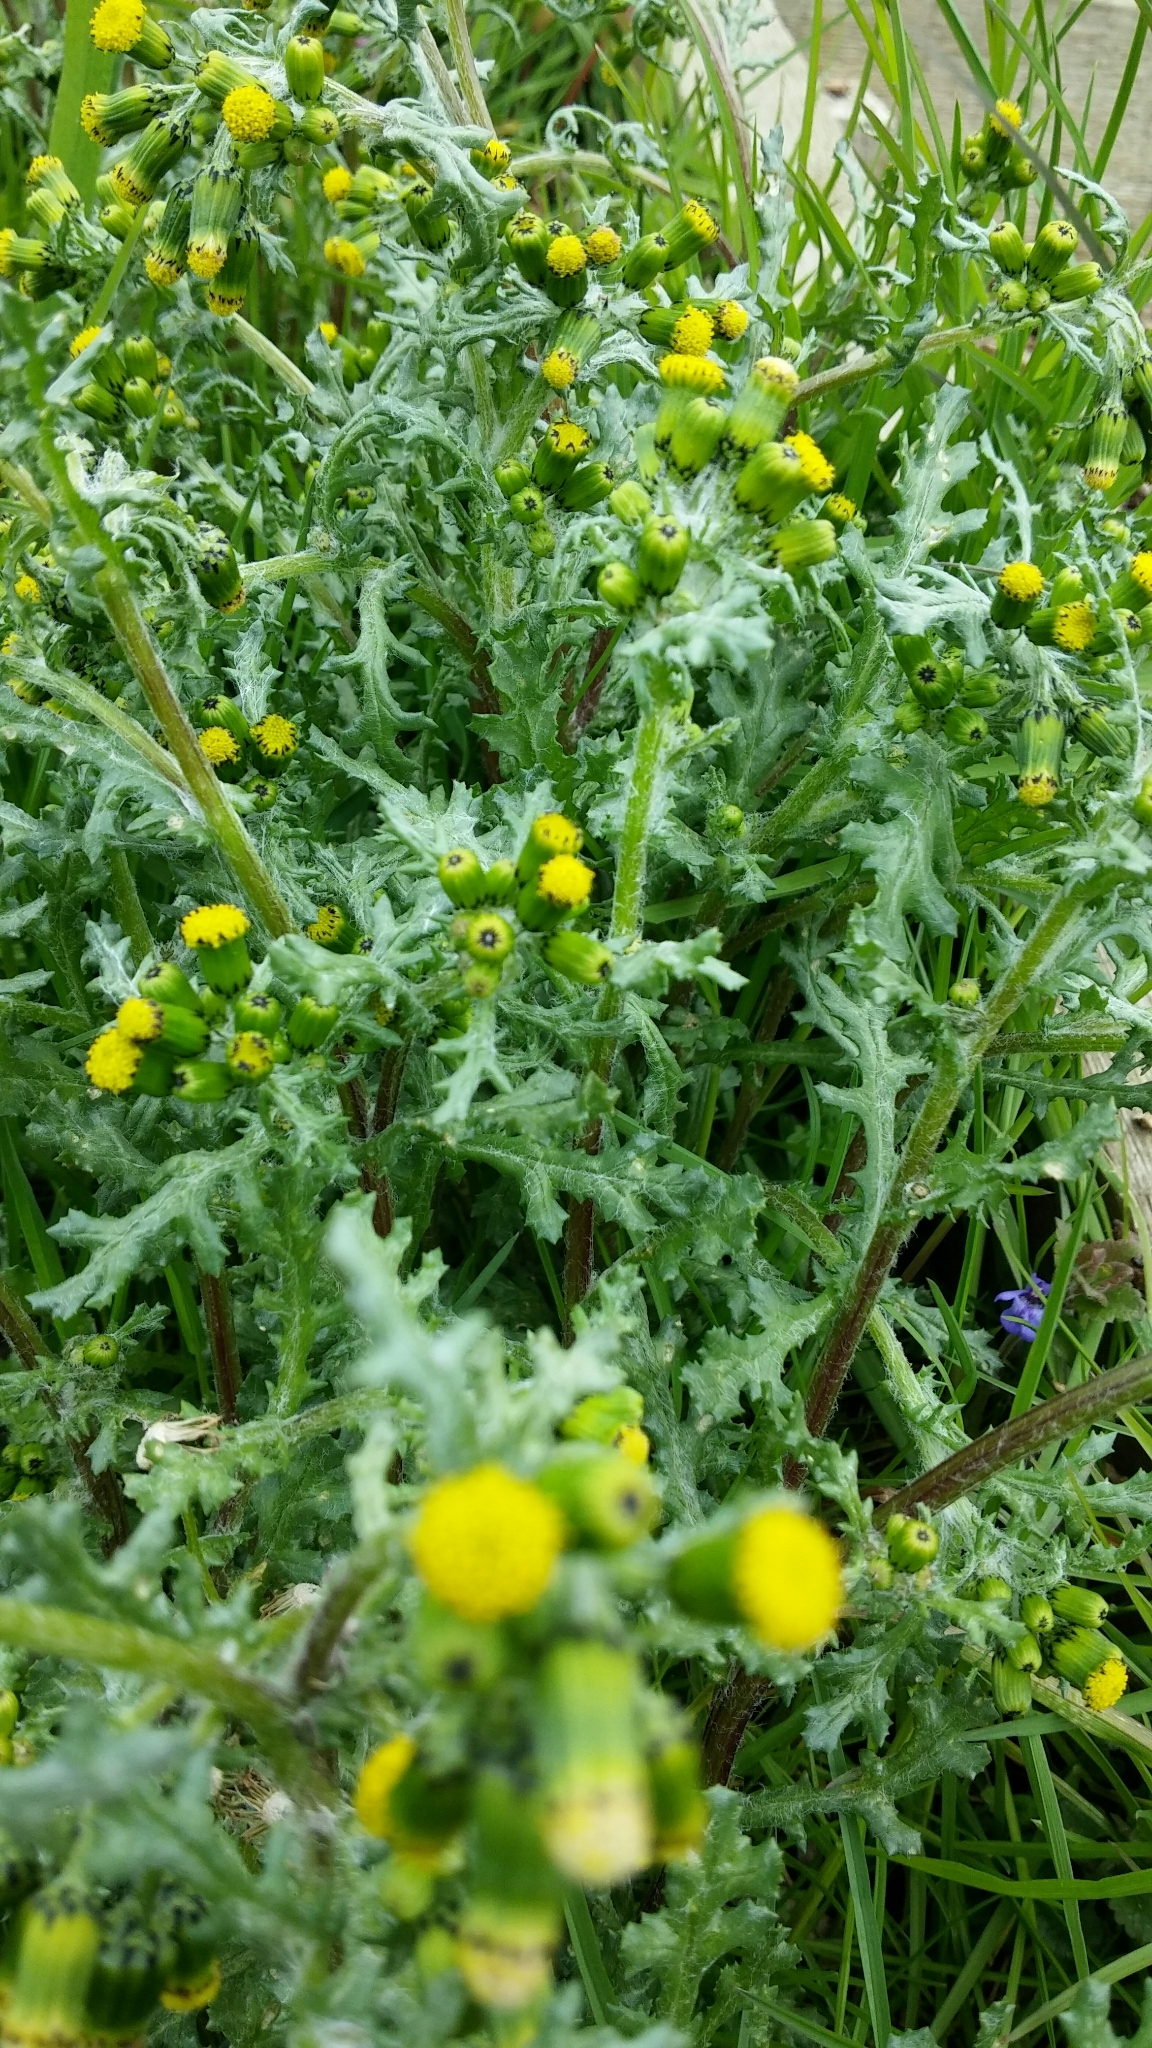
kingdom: Plantae
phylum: Tracheophyta
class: Magnoliopsida
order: Asterales
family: Asteraceae
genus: Senecio
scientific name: Senecio vulgaris
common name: Old-man-in-the-spring
